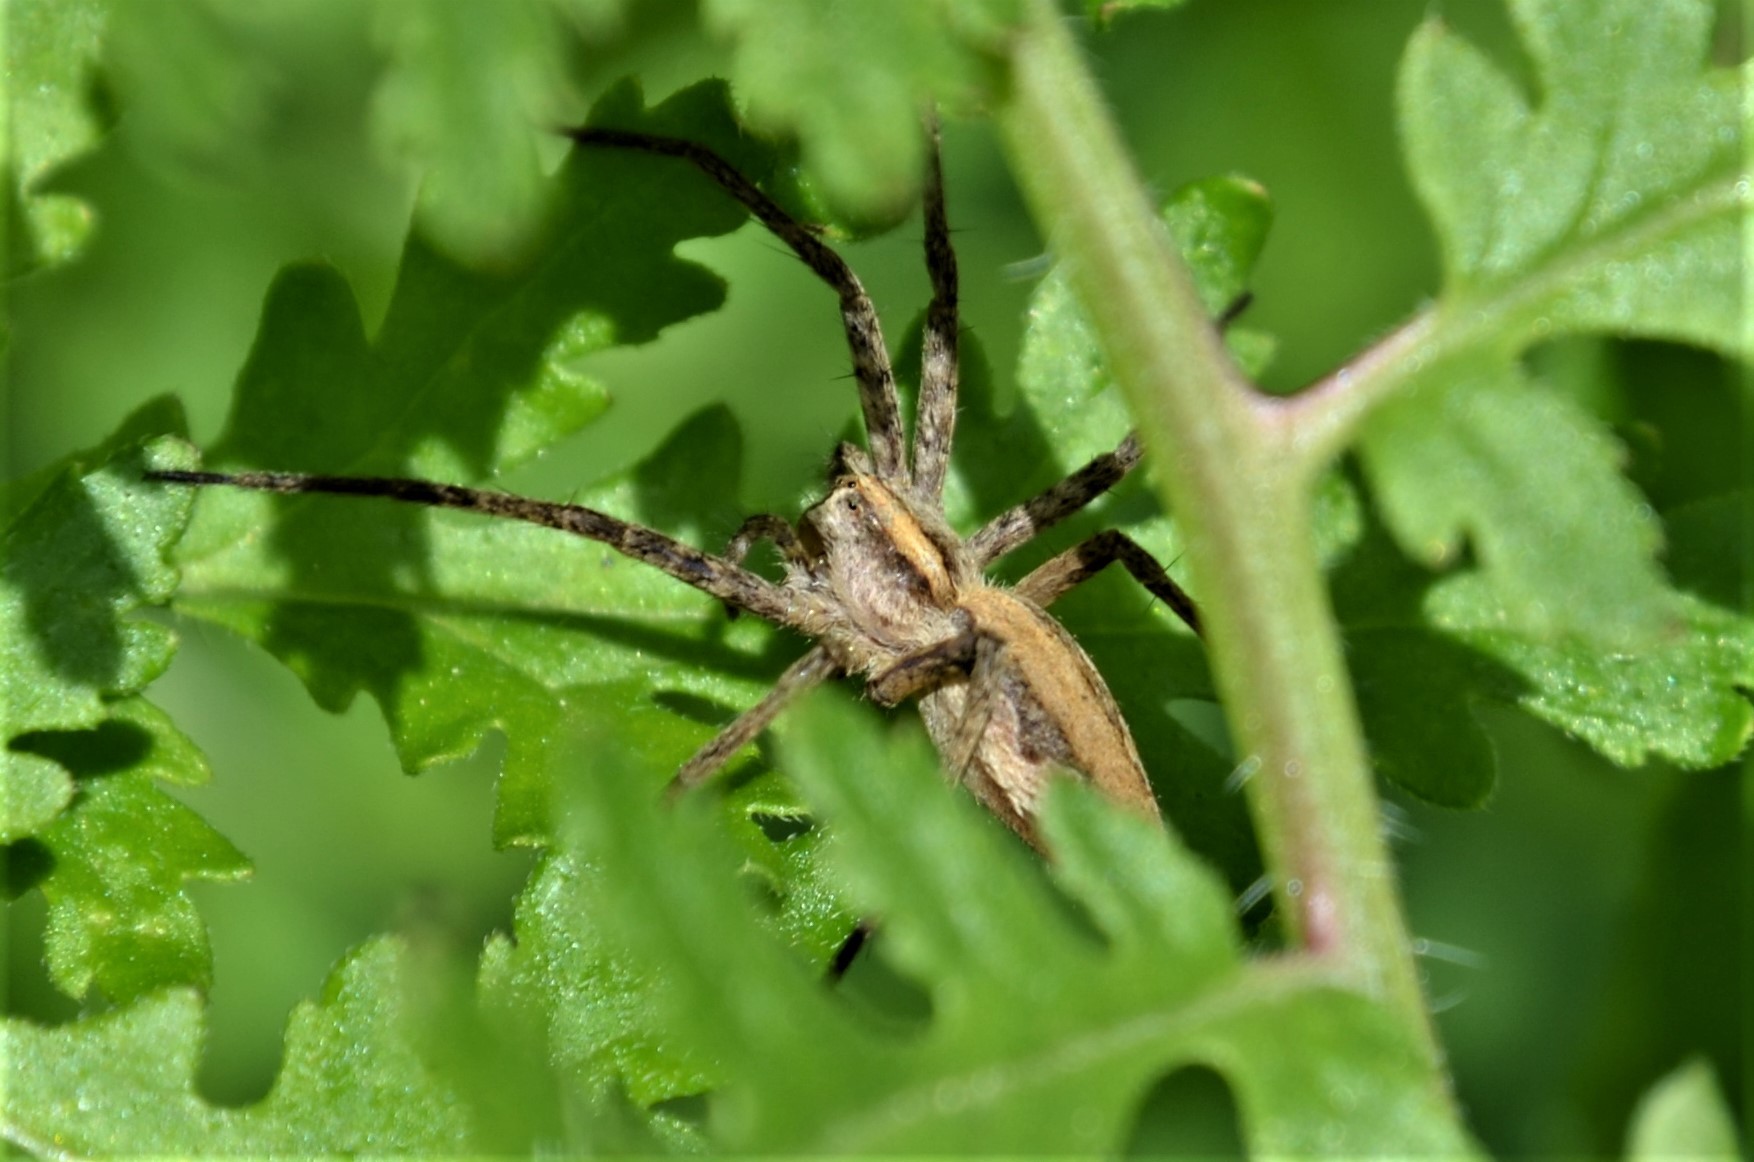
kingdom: Animalia
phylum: Arthropoda
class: Arachnida
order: Araneae
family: Pisauridae
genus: Pisaura
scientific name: Pisaura mirabilis
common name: Tent spider
